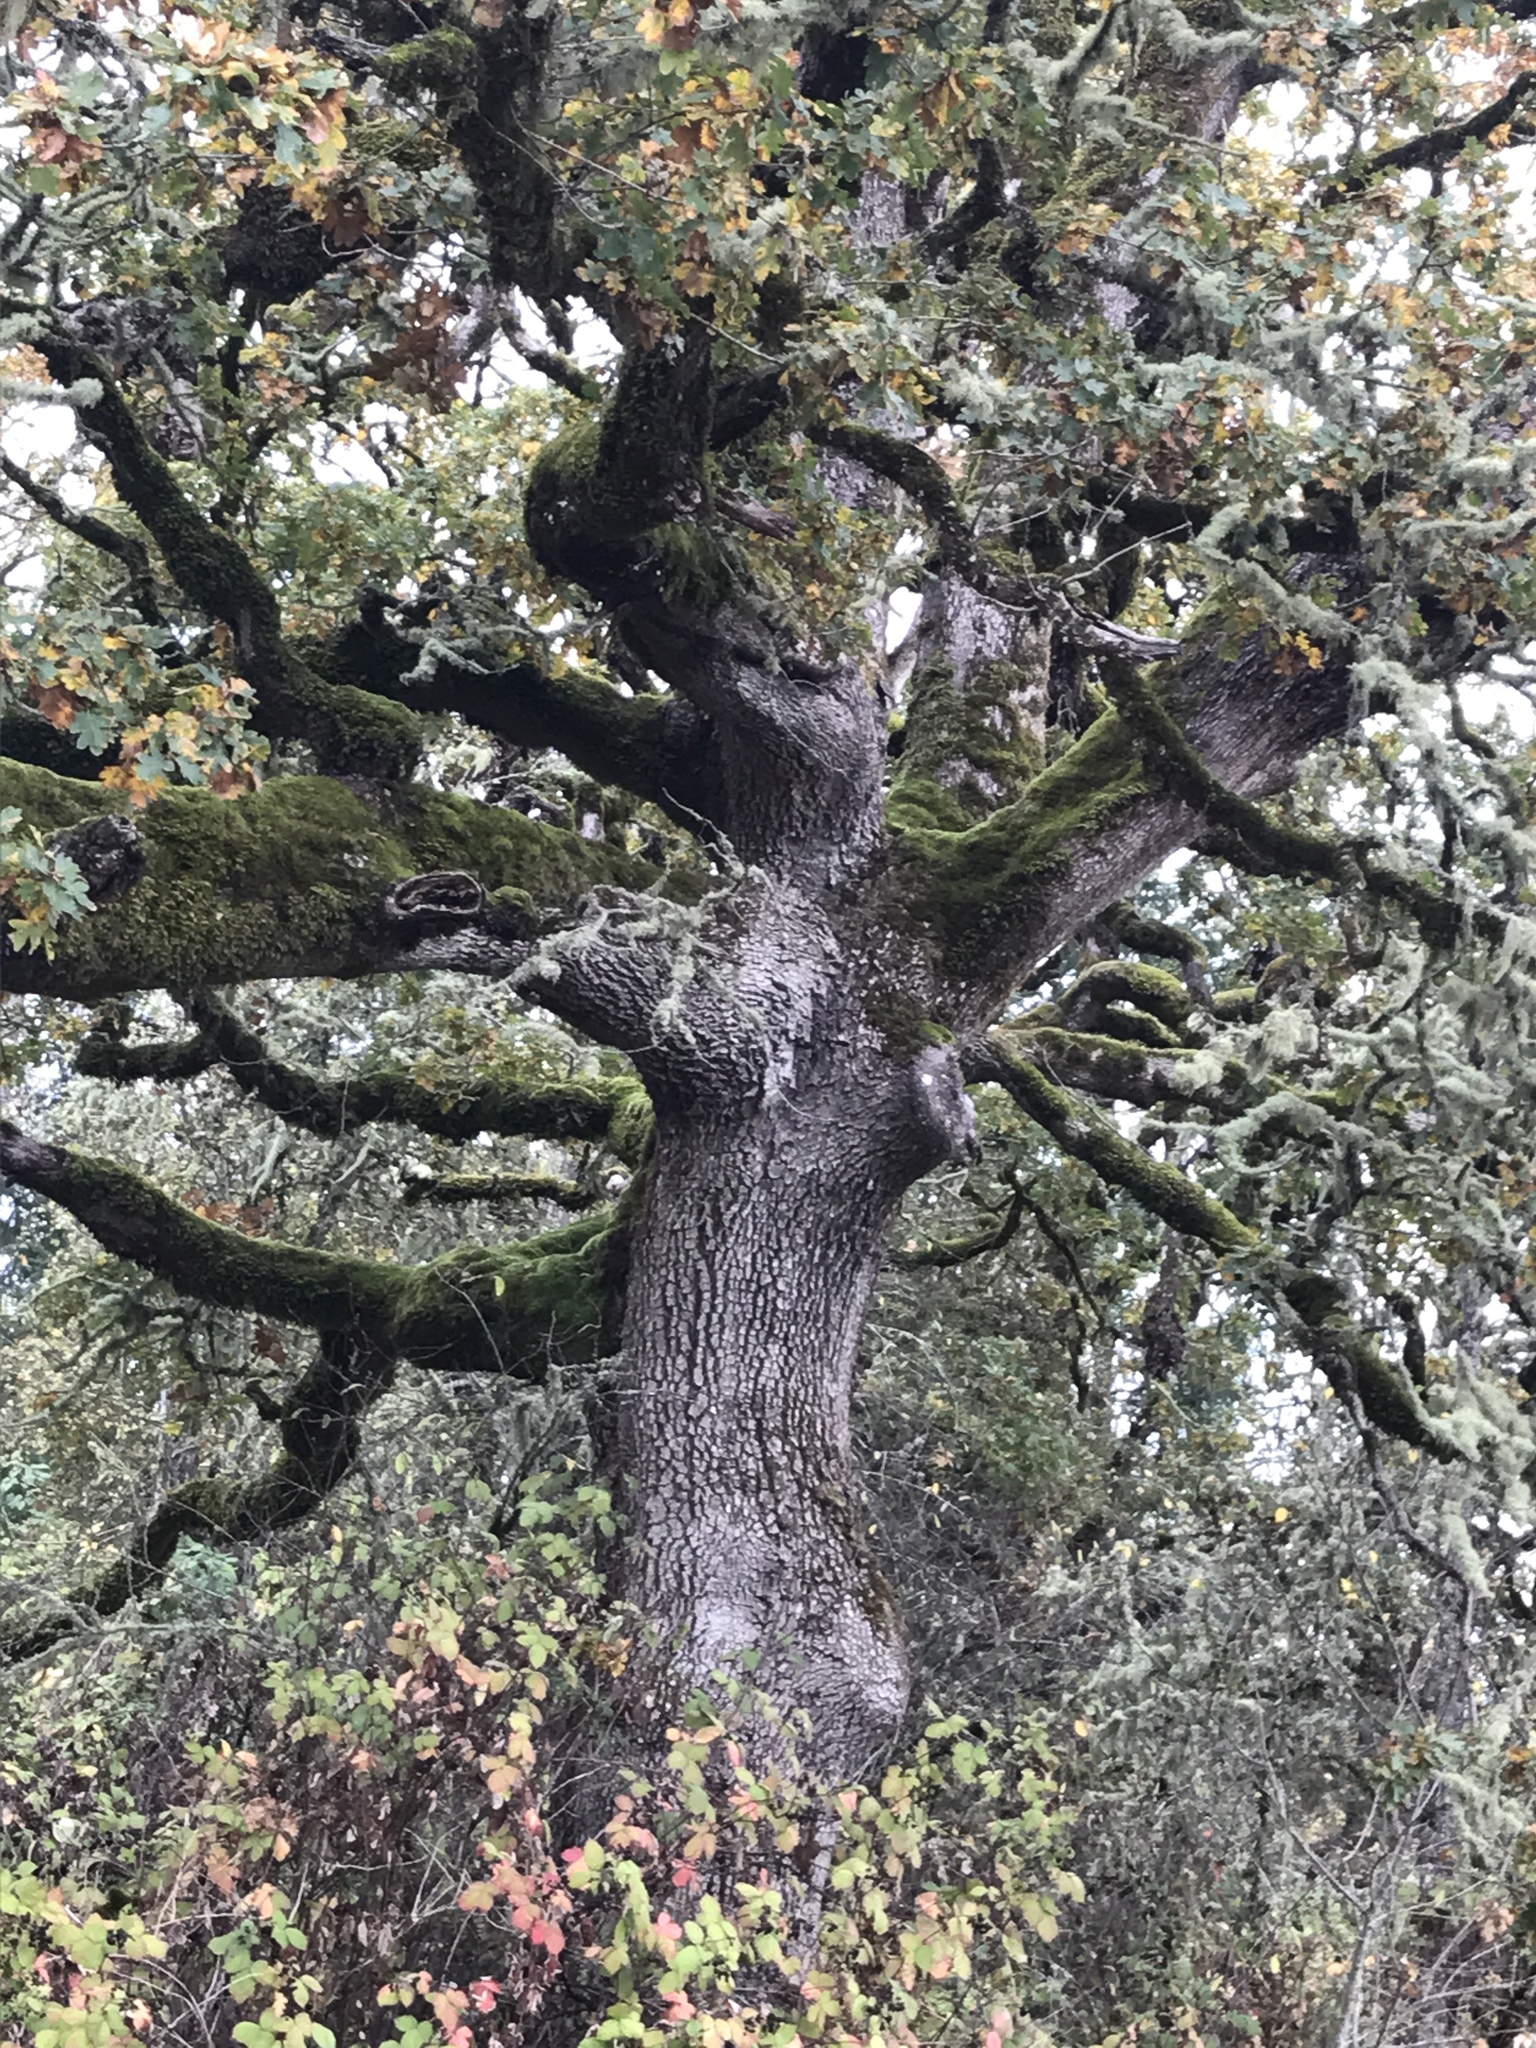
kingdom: Plantae
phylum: Tracheophyta
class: Magnoliopsida
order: Fagales
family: Fagaceae
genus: Quercus
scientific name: Quercus garryana
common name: Garry oak
